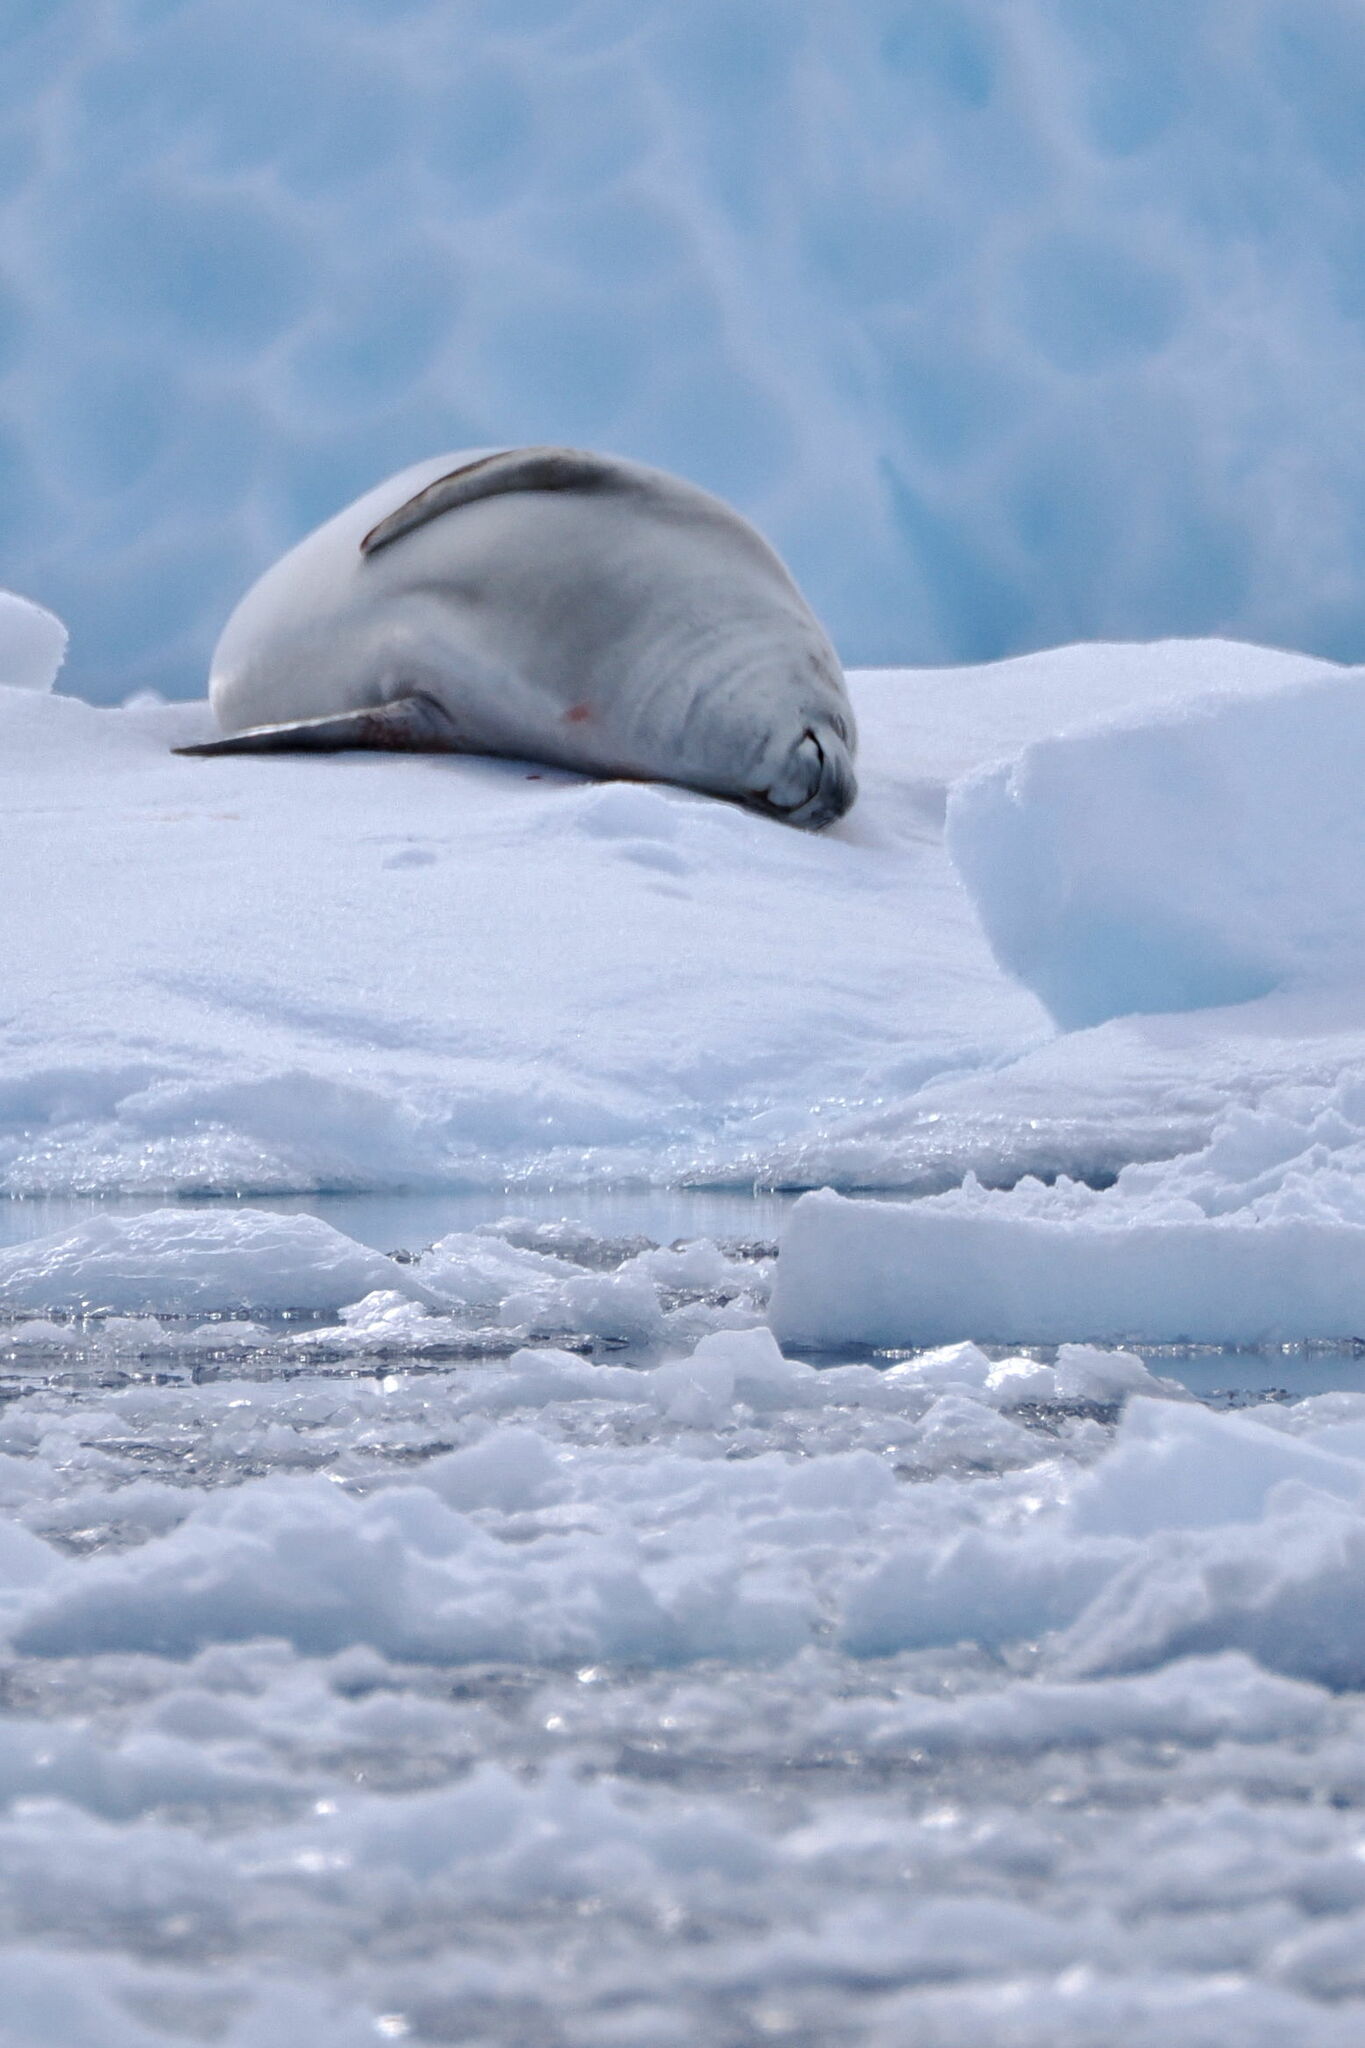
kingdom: Animalia
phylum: Chordata
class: Mammalia
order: Carnivora
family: Phocidae
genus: Lobodon
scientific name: Lobodon carcinophaga
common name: Crabeater seal
